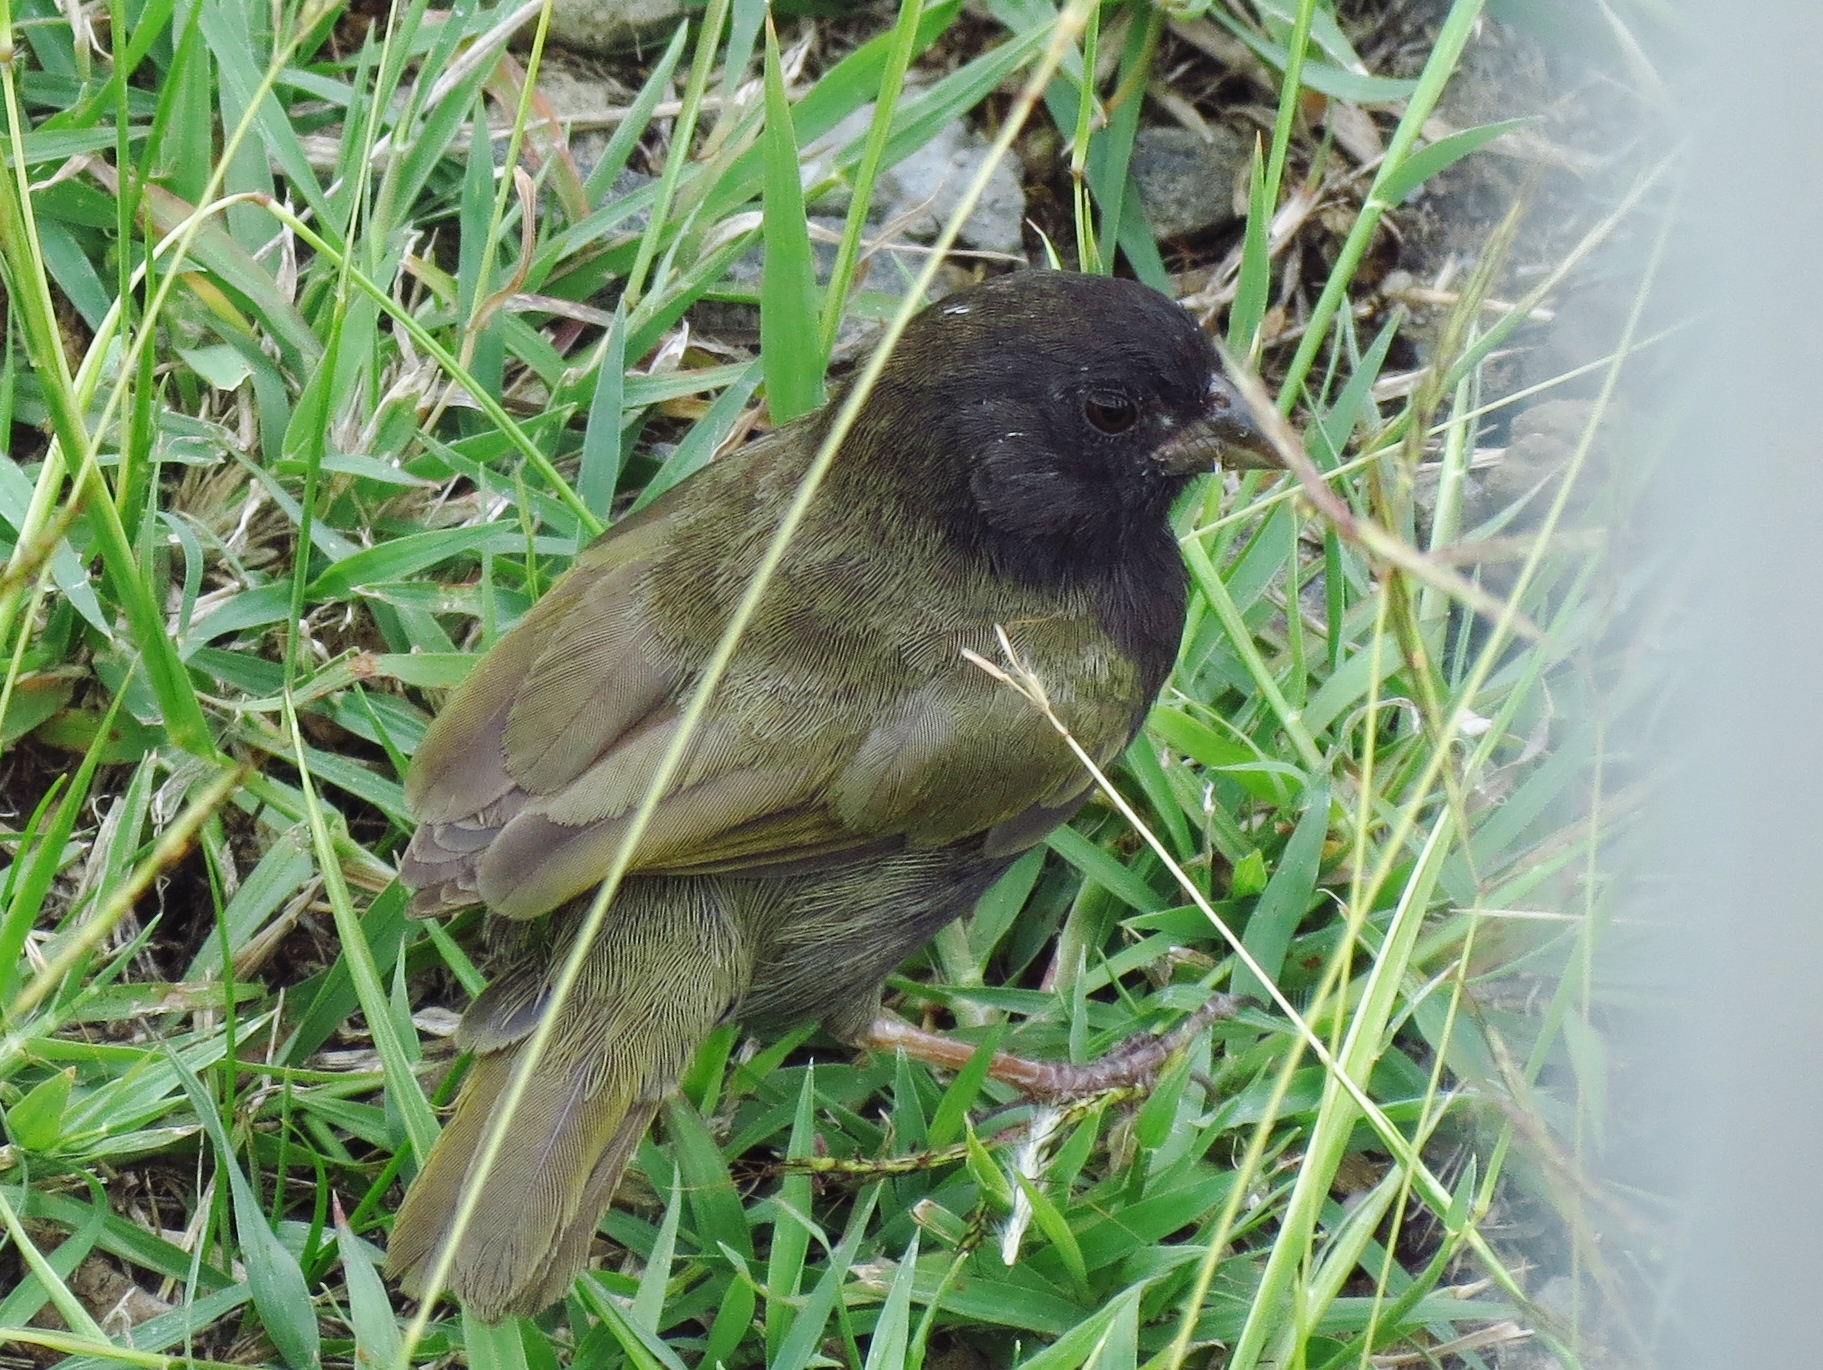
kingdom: Animalia
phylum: Chordata
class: Aves
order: Passeriformes
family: Thraupidae
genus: Melanospiza
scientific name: Melanospiza bicolor
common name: Black-faced grassquit
